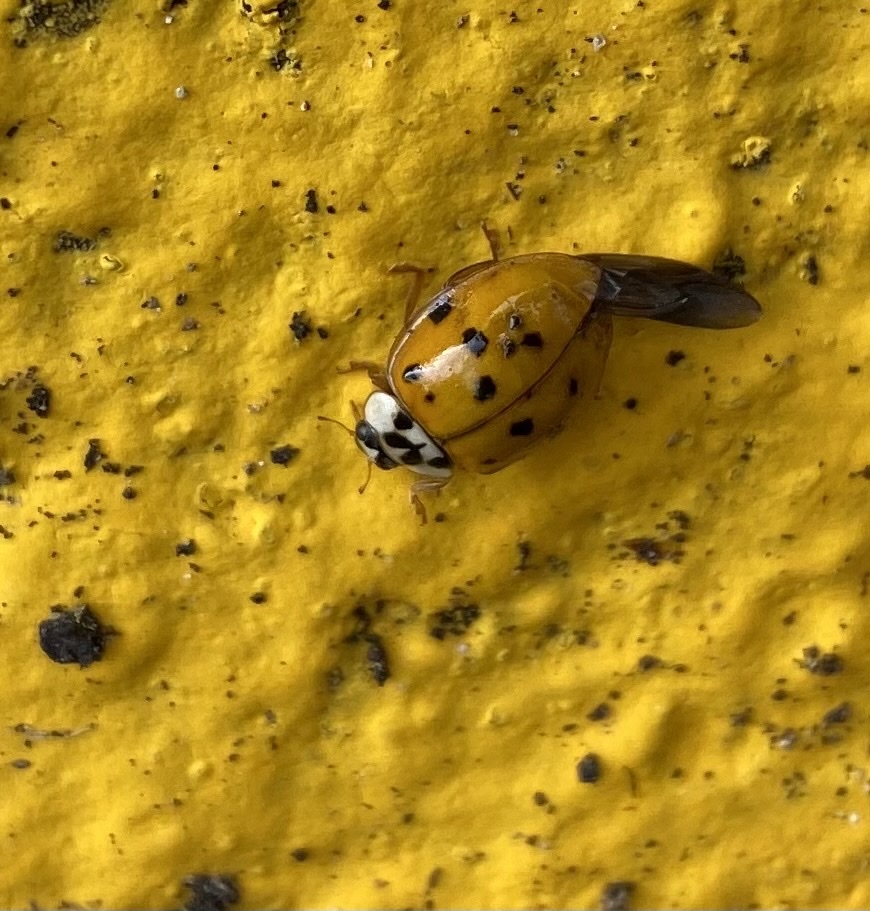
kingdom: Animalia
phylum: Arthropoda
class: Insecta
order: Coleoptera
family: Coccinellidae
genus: Harmonia
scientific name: Harmonia axyridis
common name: Harlequin ladybird
